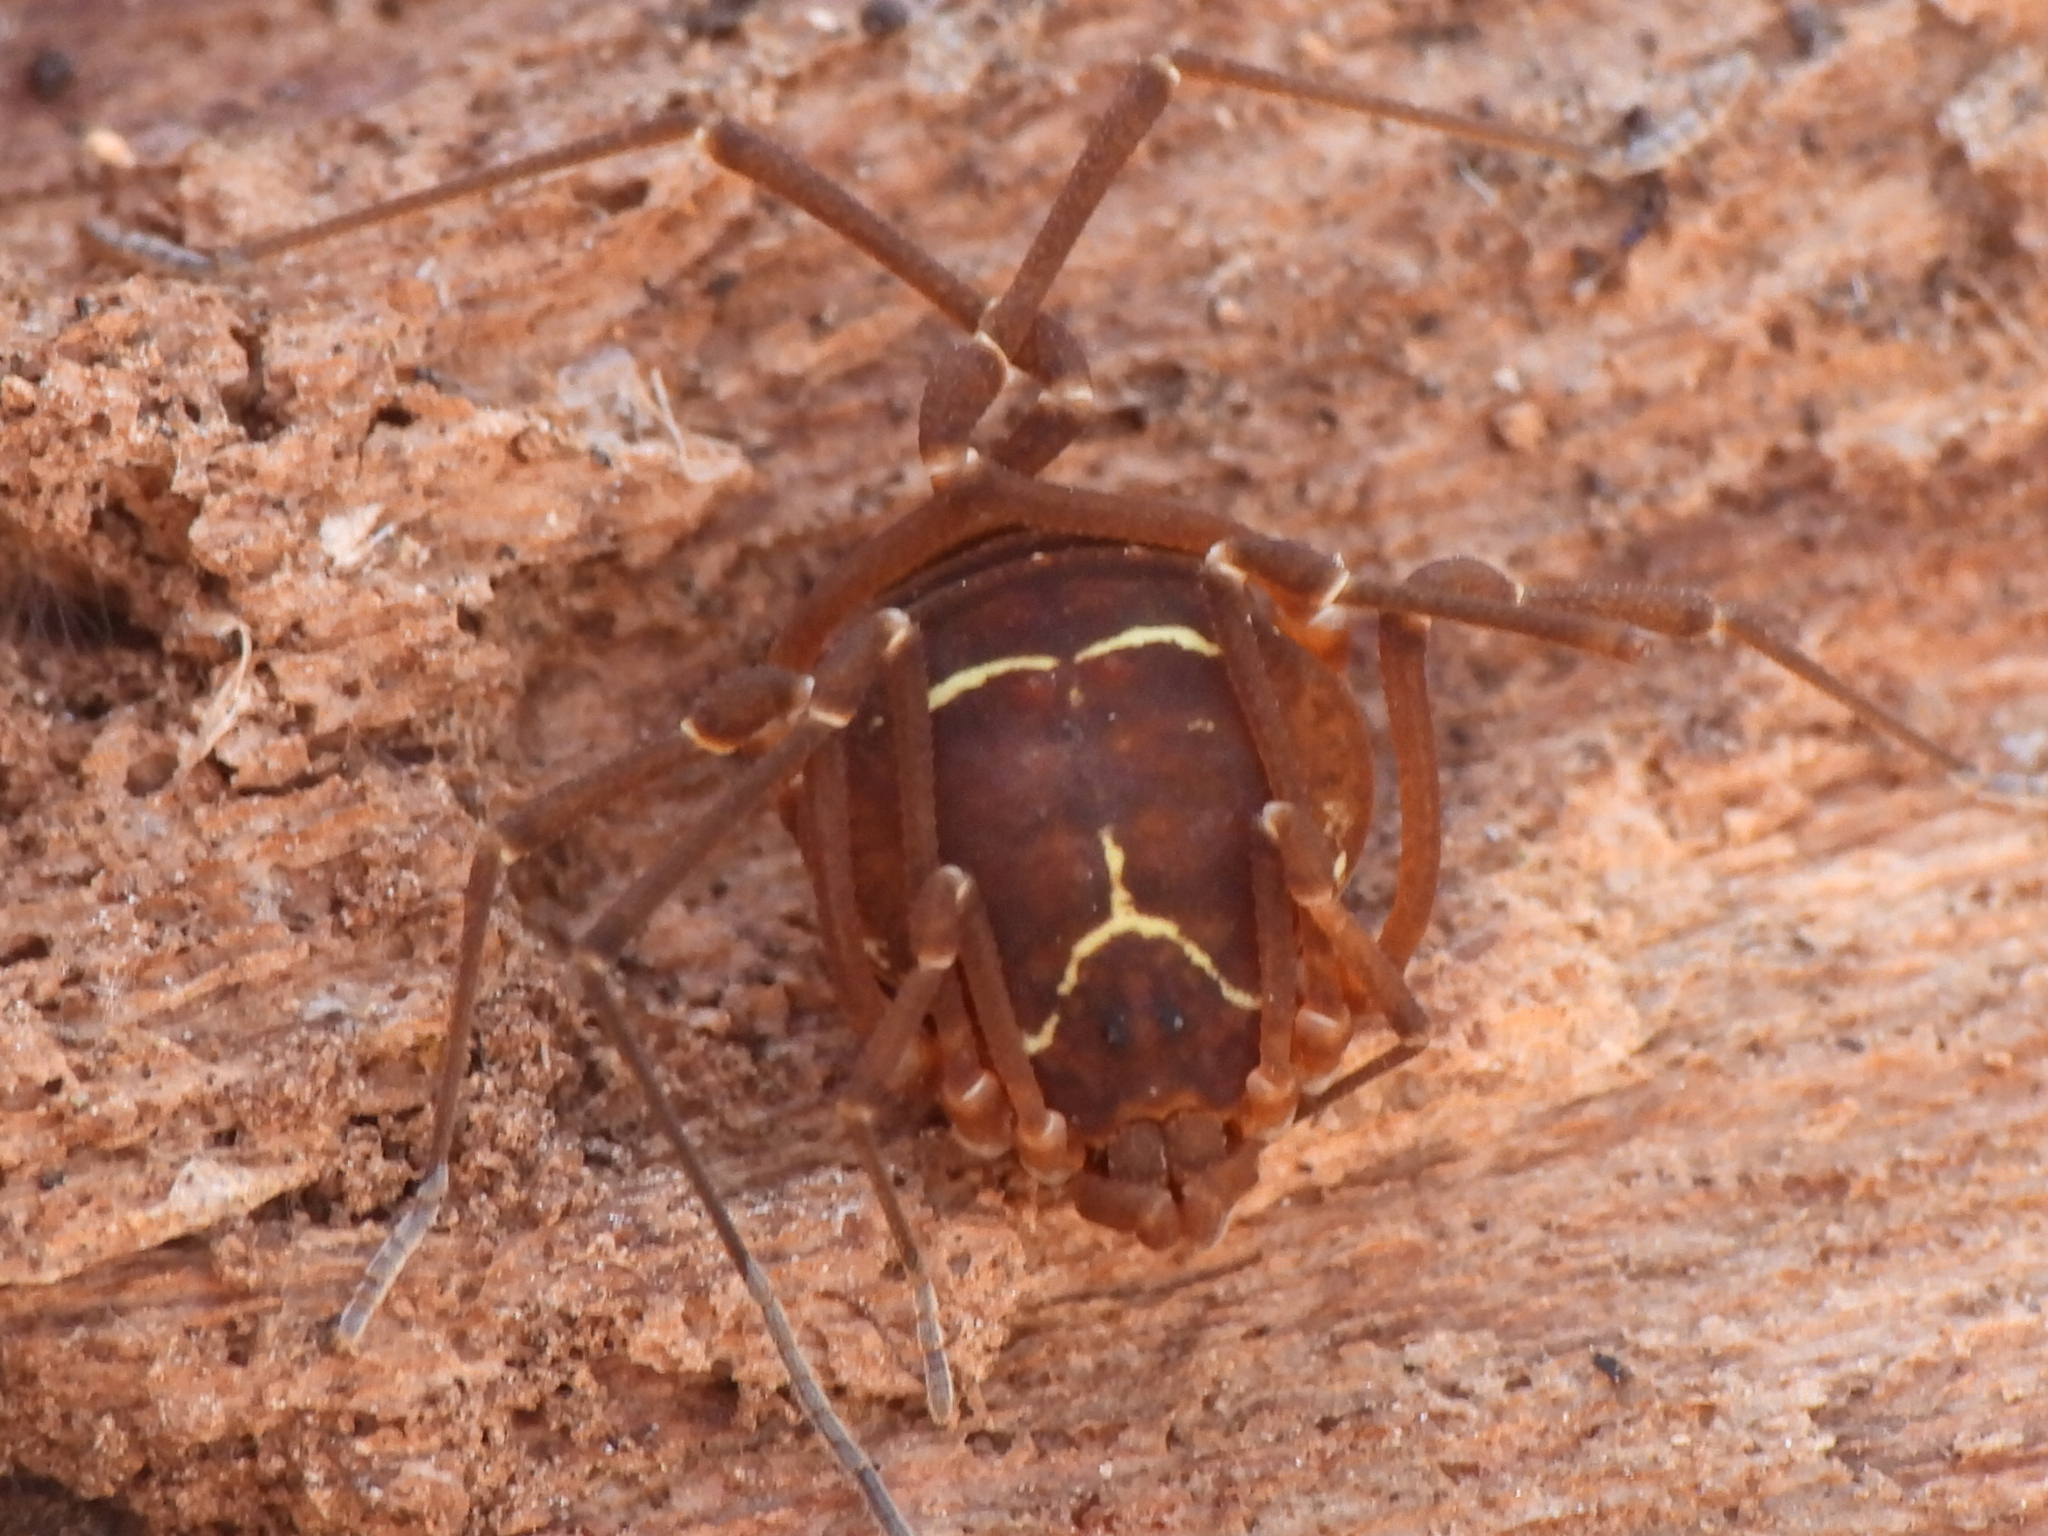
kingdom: Animalia
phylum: Arthropoda
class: Arachnida
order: Opiliones
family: Cosmetidae
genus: Libitioides
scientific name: Libitioides sayi
